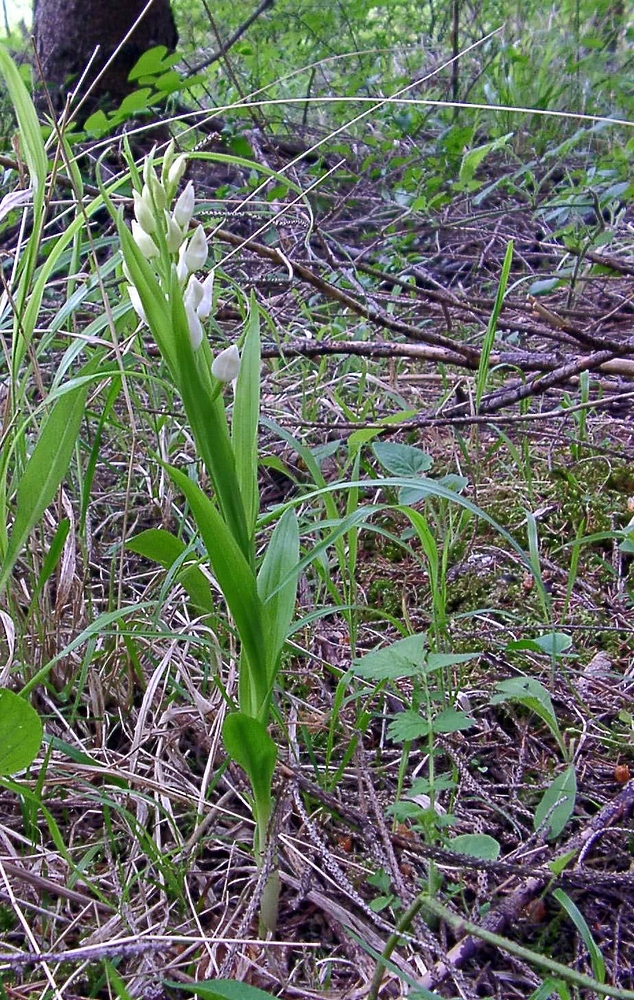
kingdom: Plantae
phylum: Tracheophyta
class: Liliopsida
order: Asparagales
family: Orchidaceae
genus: Cephalanthera
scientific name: Cephalanthera longifolia
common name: Narrow-leaved helleborine
